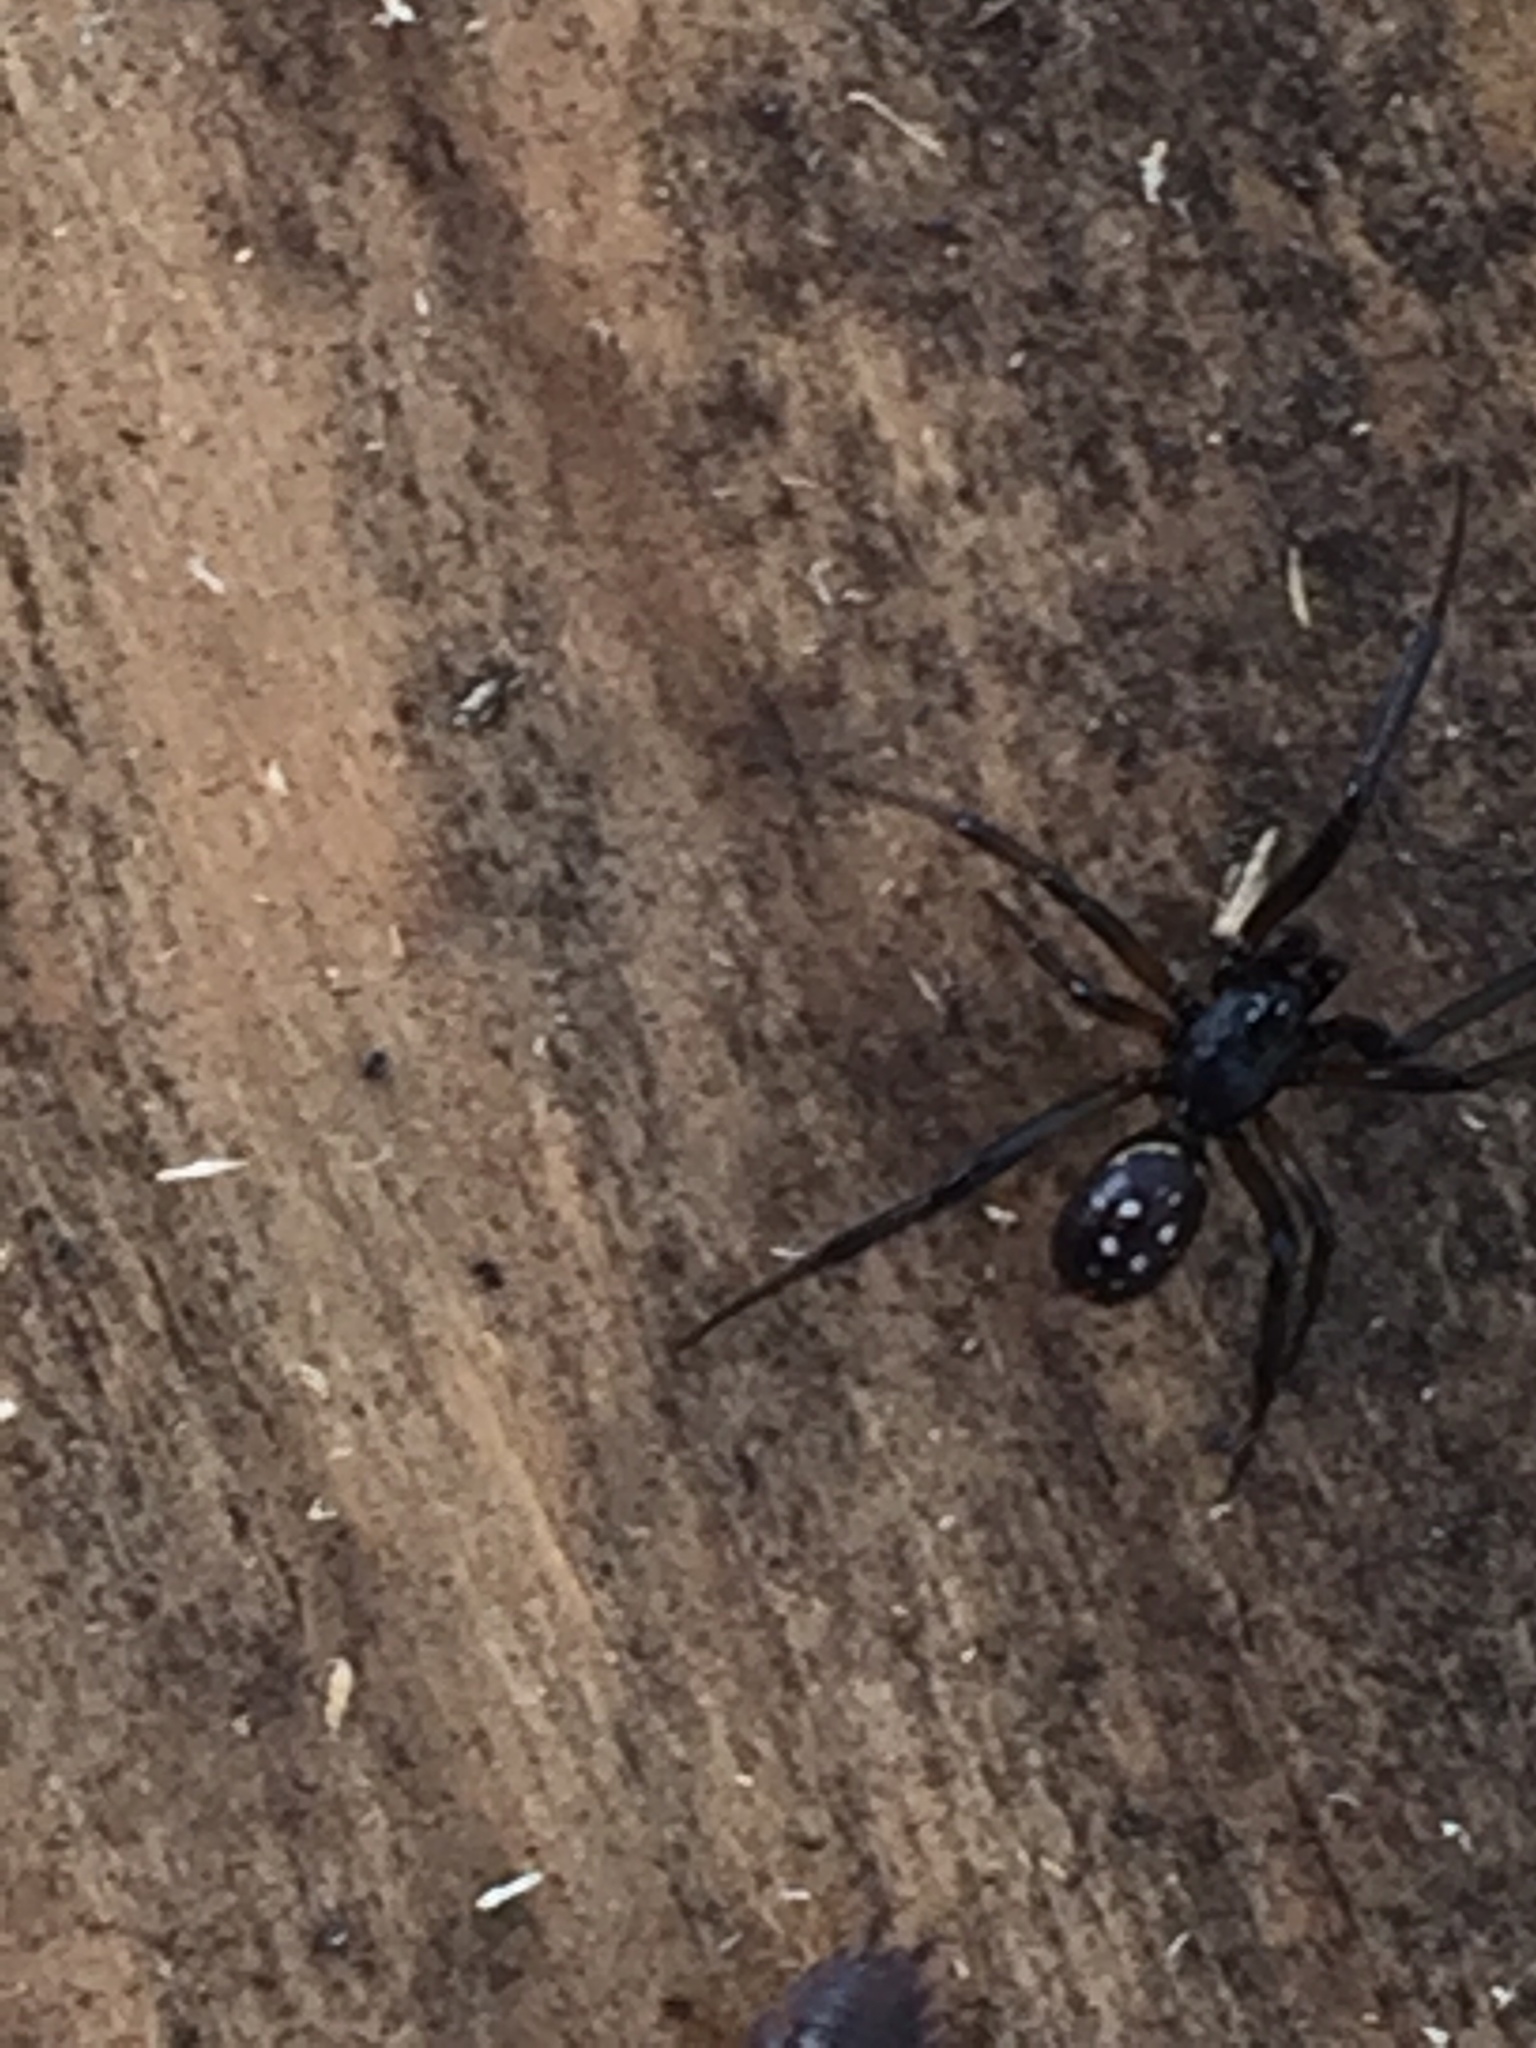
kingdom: Animalia
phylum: Arthropoda
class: Arachnida
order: Araneae
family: Theridiidae
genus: Steatoda
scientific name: Steatoda capensis
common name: Cobweb weaver
